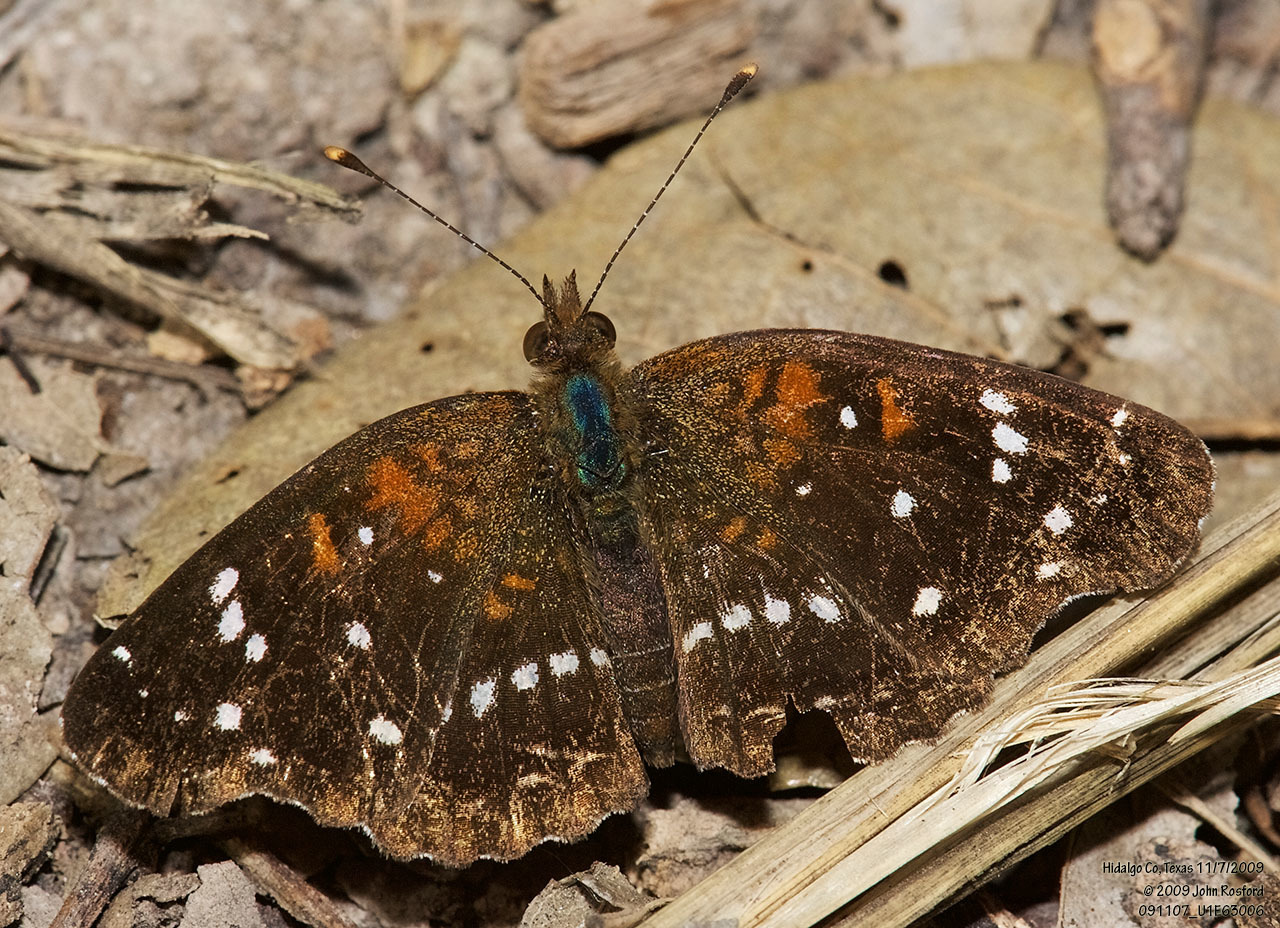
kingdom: Animalia
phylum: Arthropoda
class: Insecta
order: Lepidoptera
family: Nymphalidae
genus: Anthanassa
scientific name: Anthanassa texana
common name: Texan crescent
